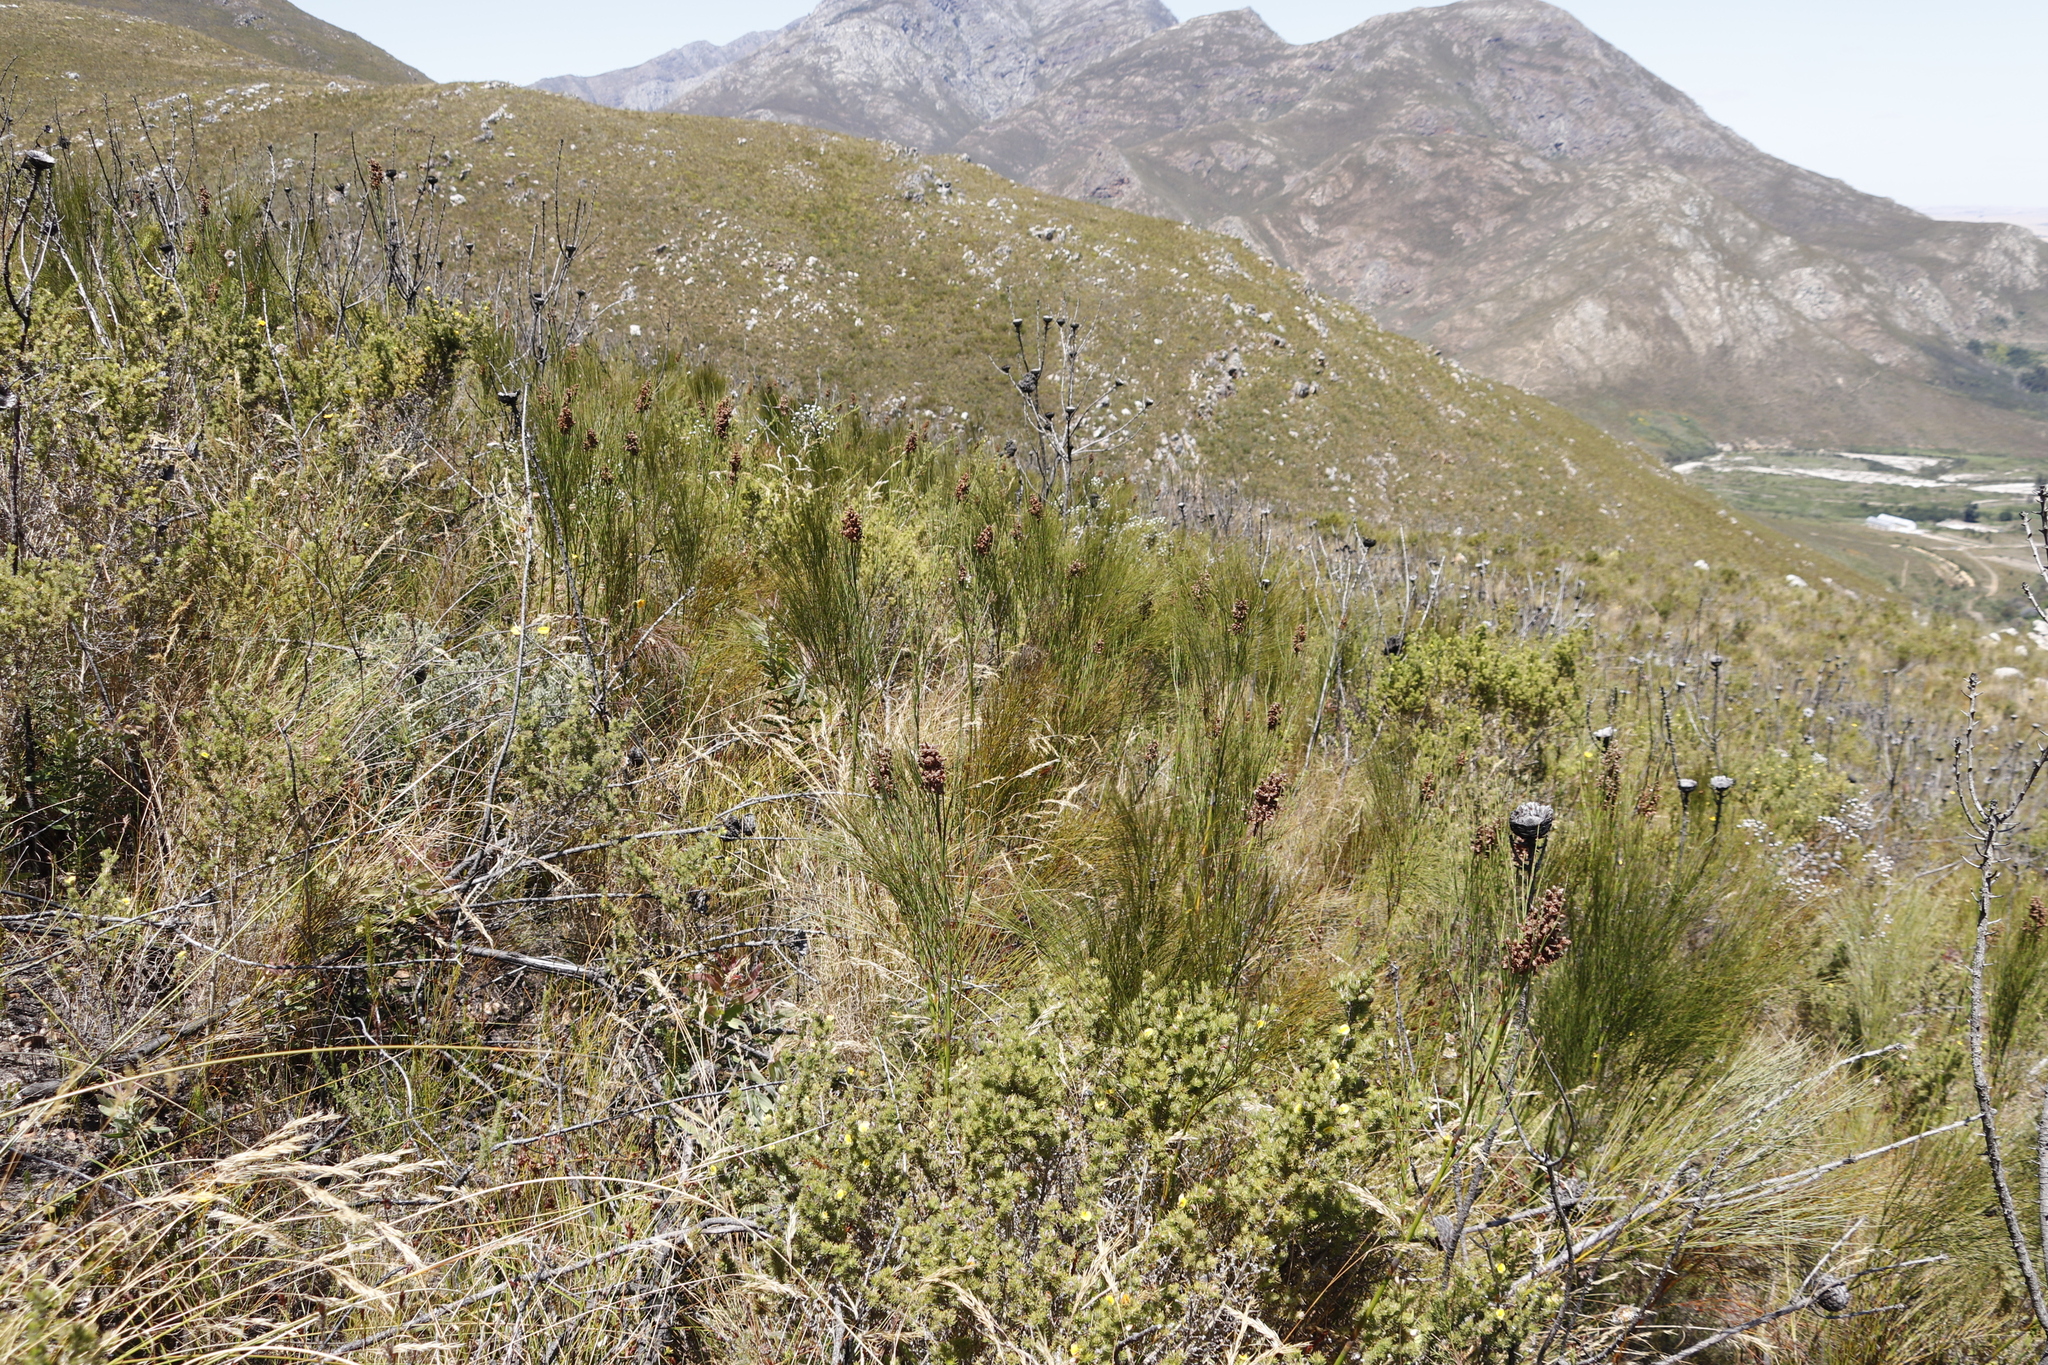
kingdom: Plantae
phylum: Tracheophyta
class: Liliopsida
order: Poales
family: Restionaceae
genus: Cannomois
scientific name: Cannomois virgata
